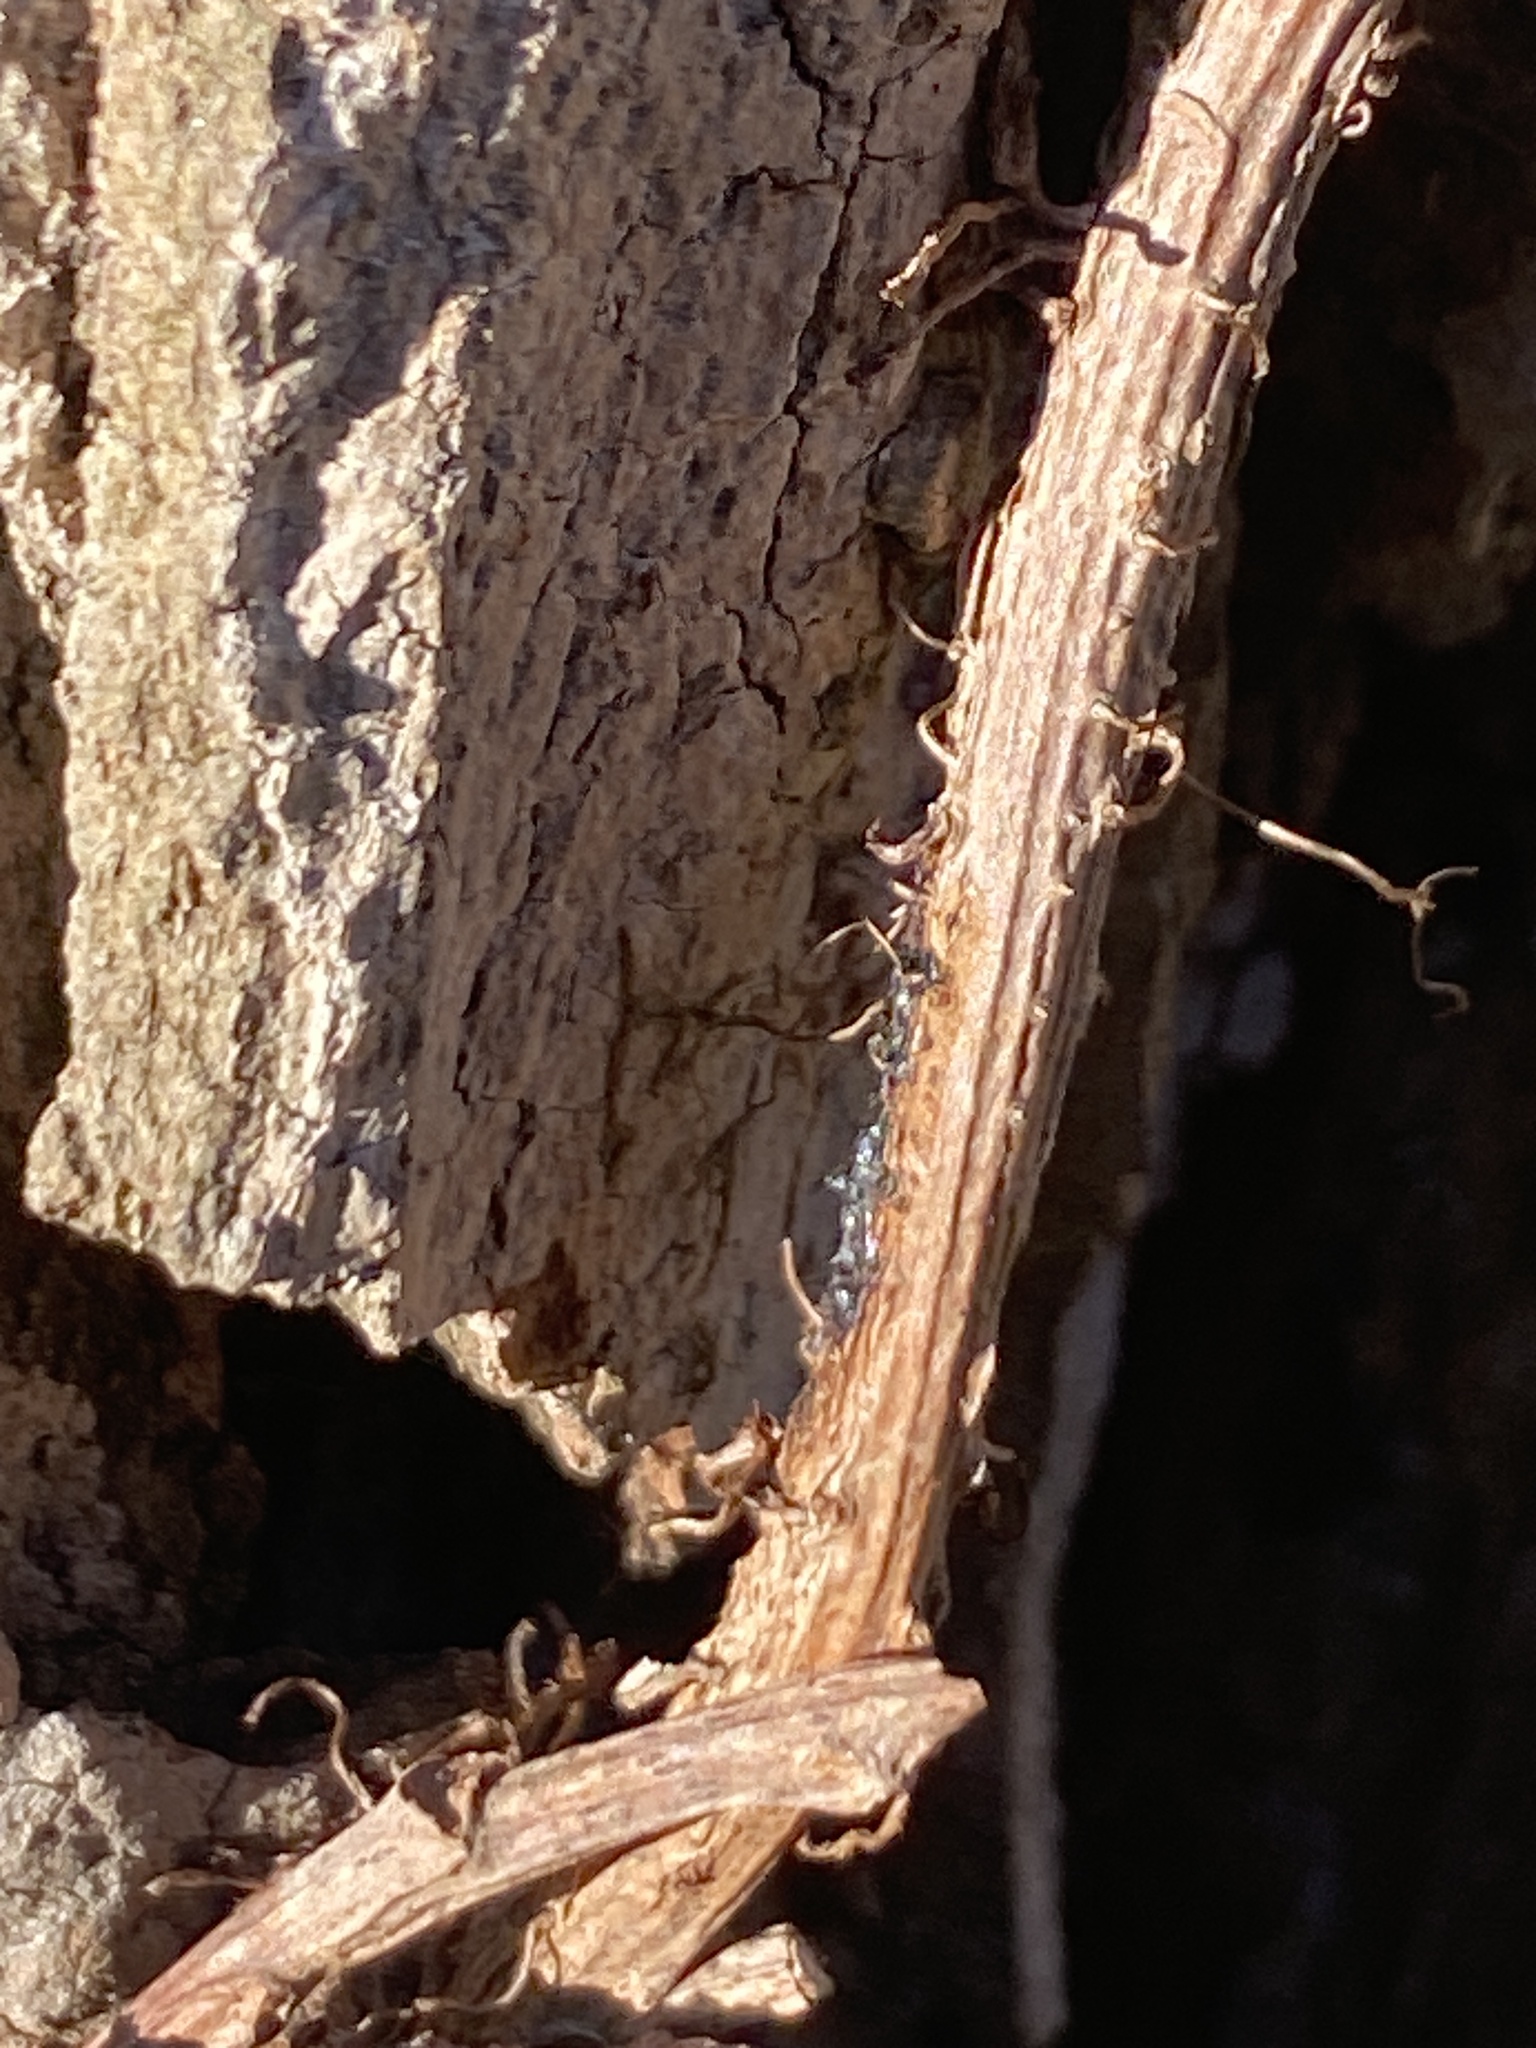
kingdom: Plantae
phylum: Tracheophyta
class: Magnoliopsida
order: Sapindales
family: Anacardiaceae
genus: Toxicodendron
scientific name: Toxicodendron radicans
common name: Poison ivy
